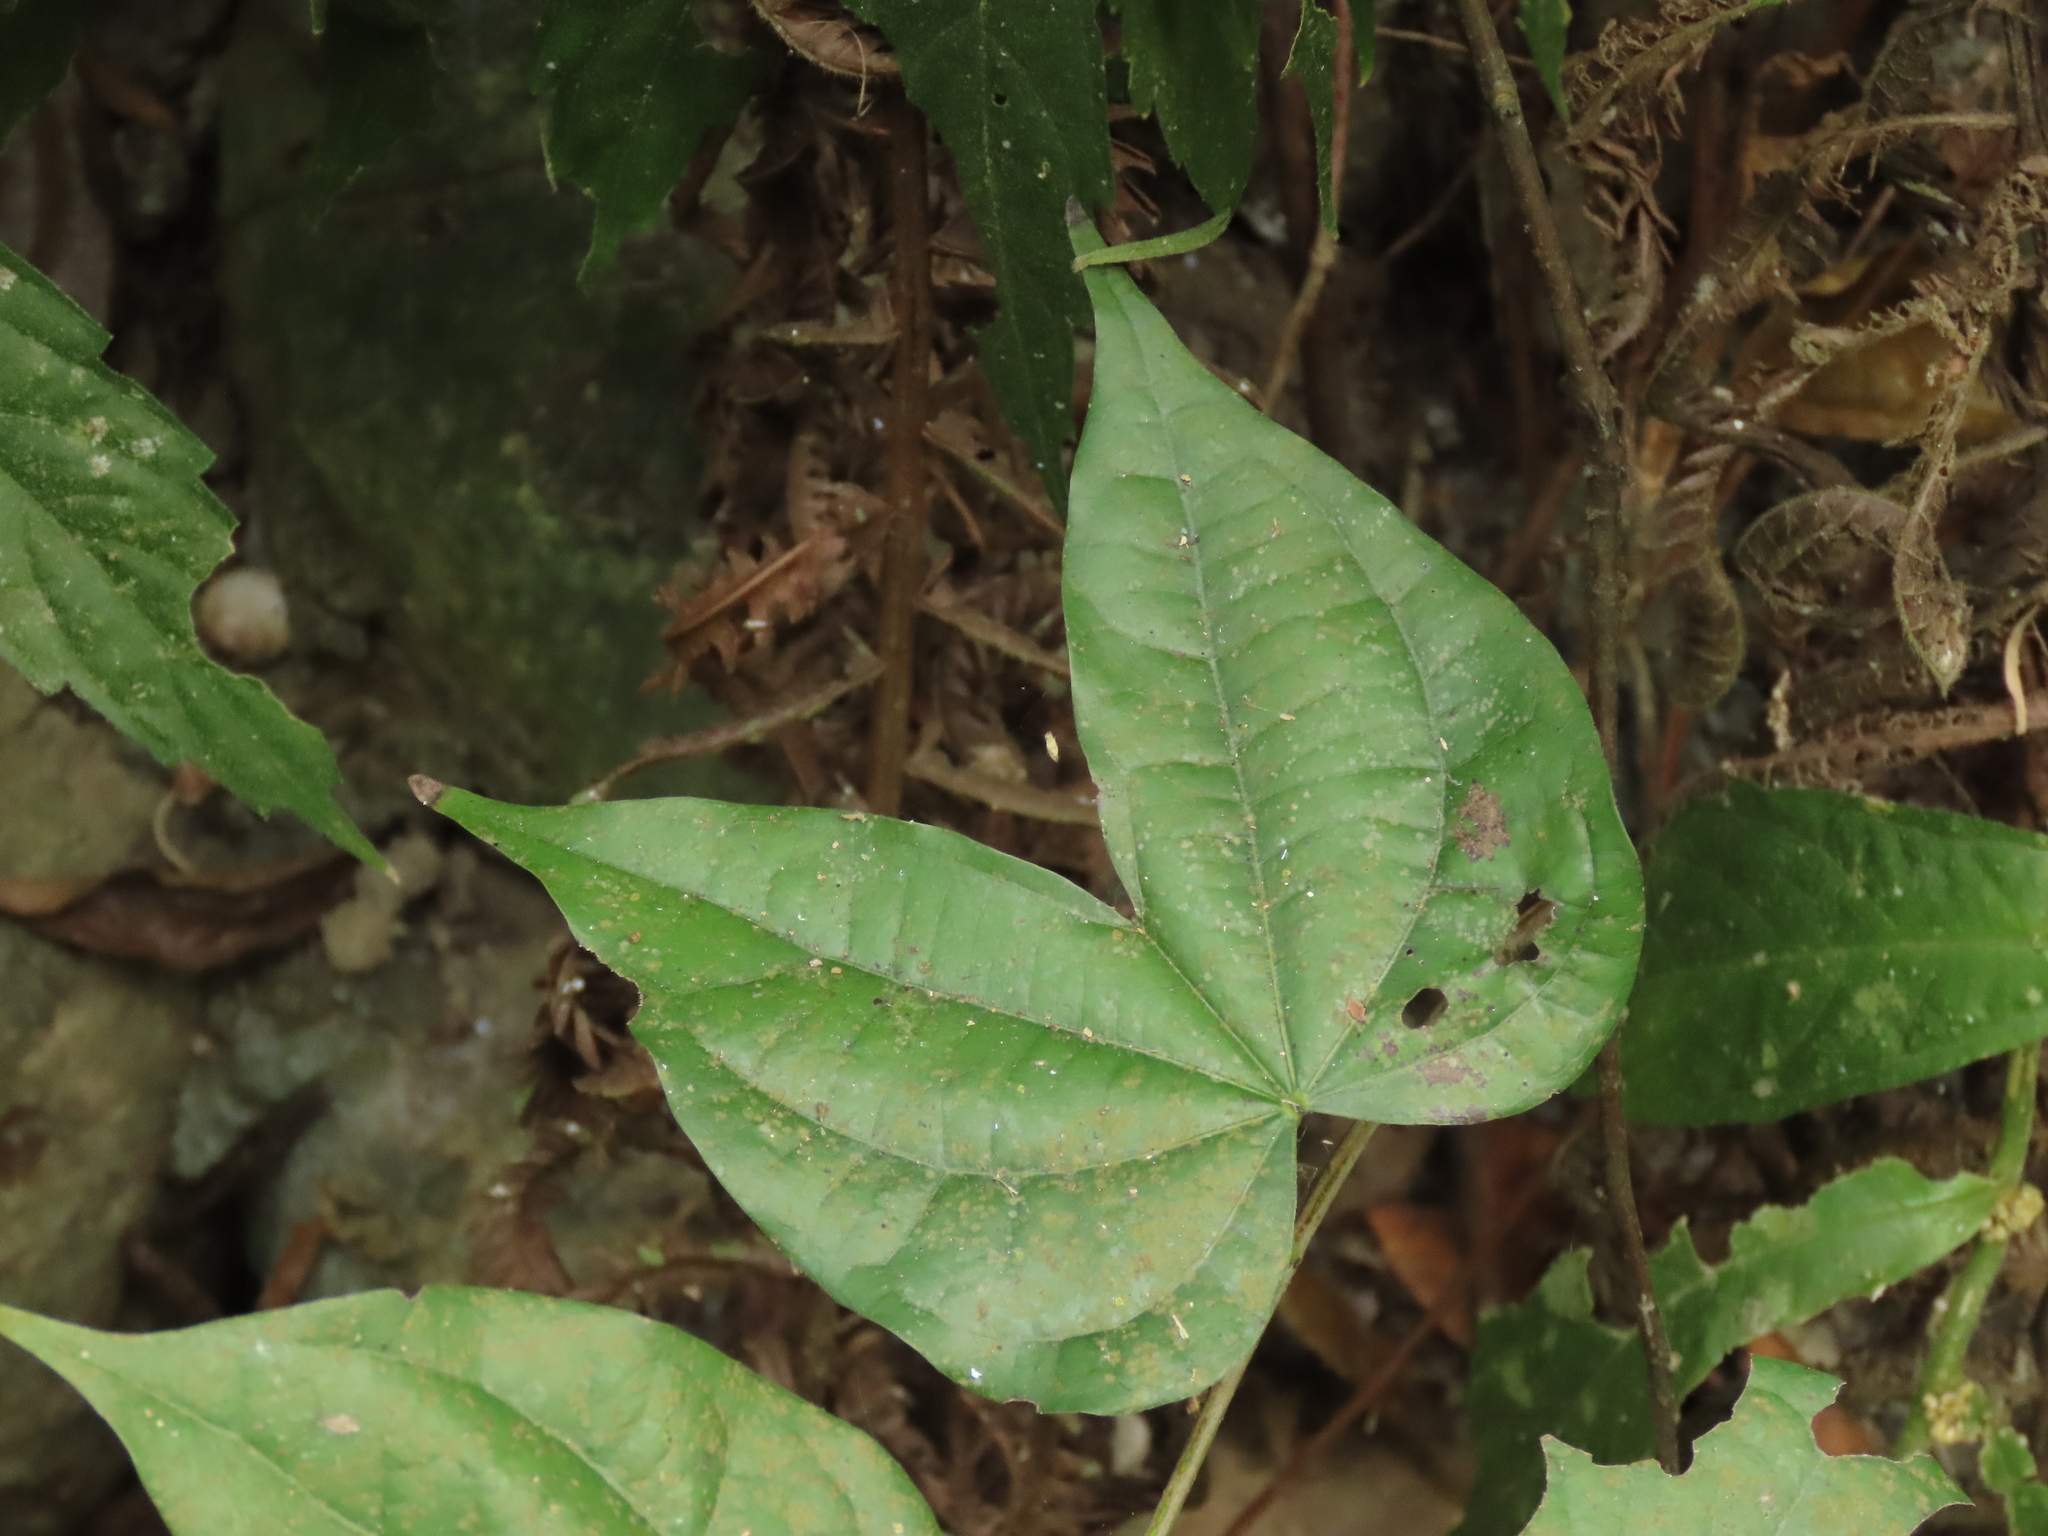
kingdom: Plantae
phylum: Tracheophyta
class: Magnoliopsida
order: Fabales
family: Fabaceae
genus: Phanera
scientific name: Phanera championii
